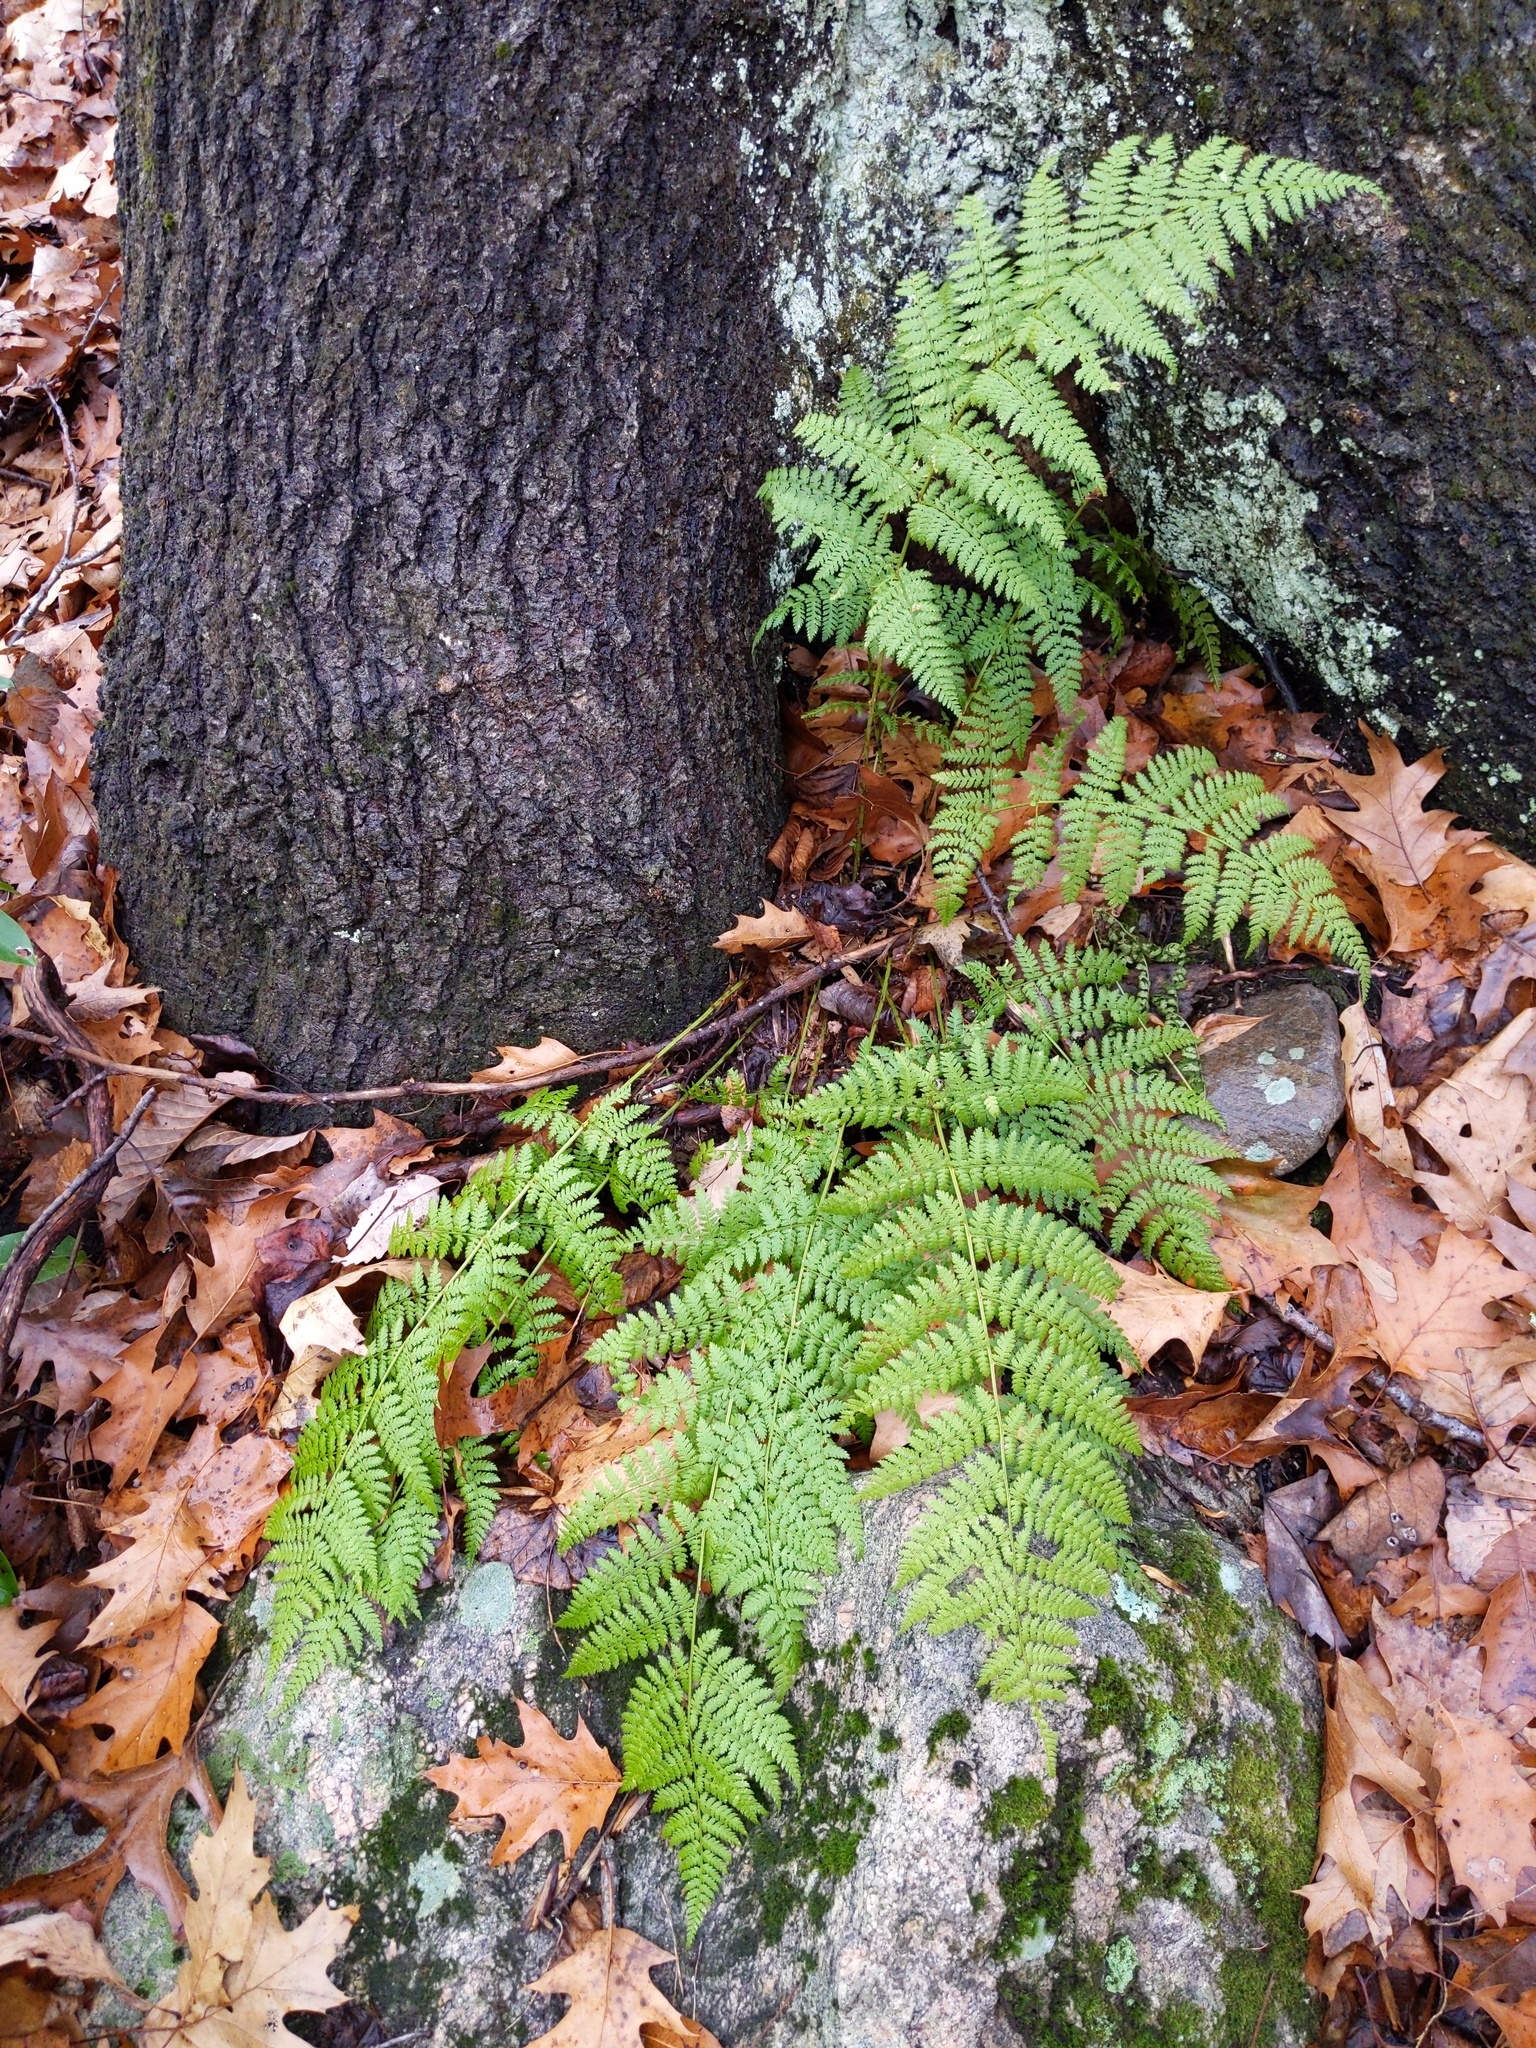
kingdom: Plantae
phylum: Tracheophyta
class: Polypodiopsida
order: Polypodiales
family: Dryopteridaceae
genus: Dryopteris
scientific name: Dryopteris intermedia
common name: Evergreen wood fern
